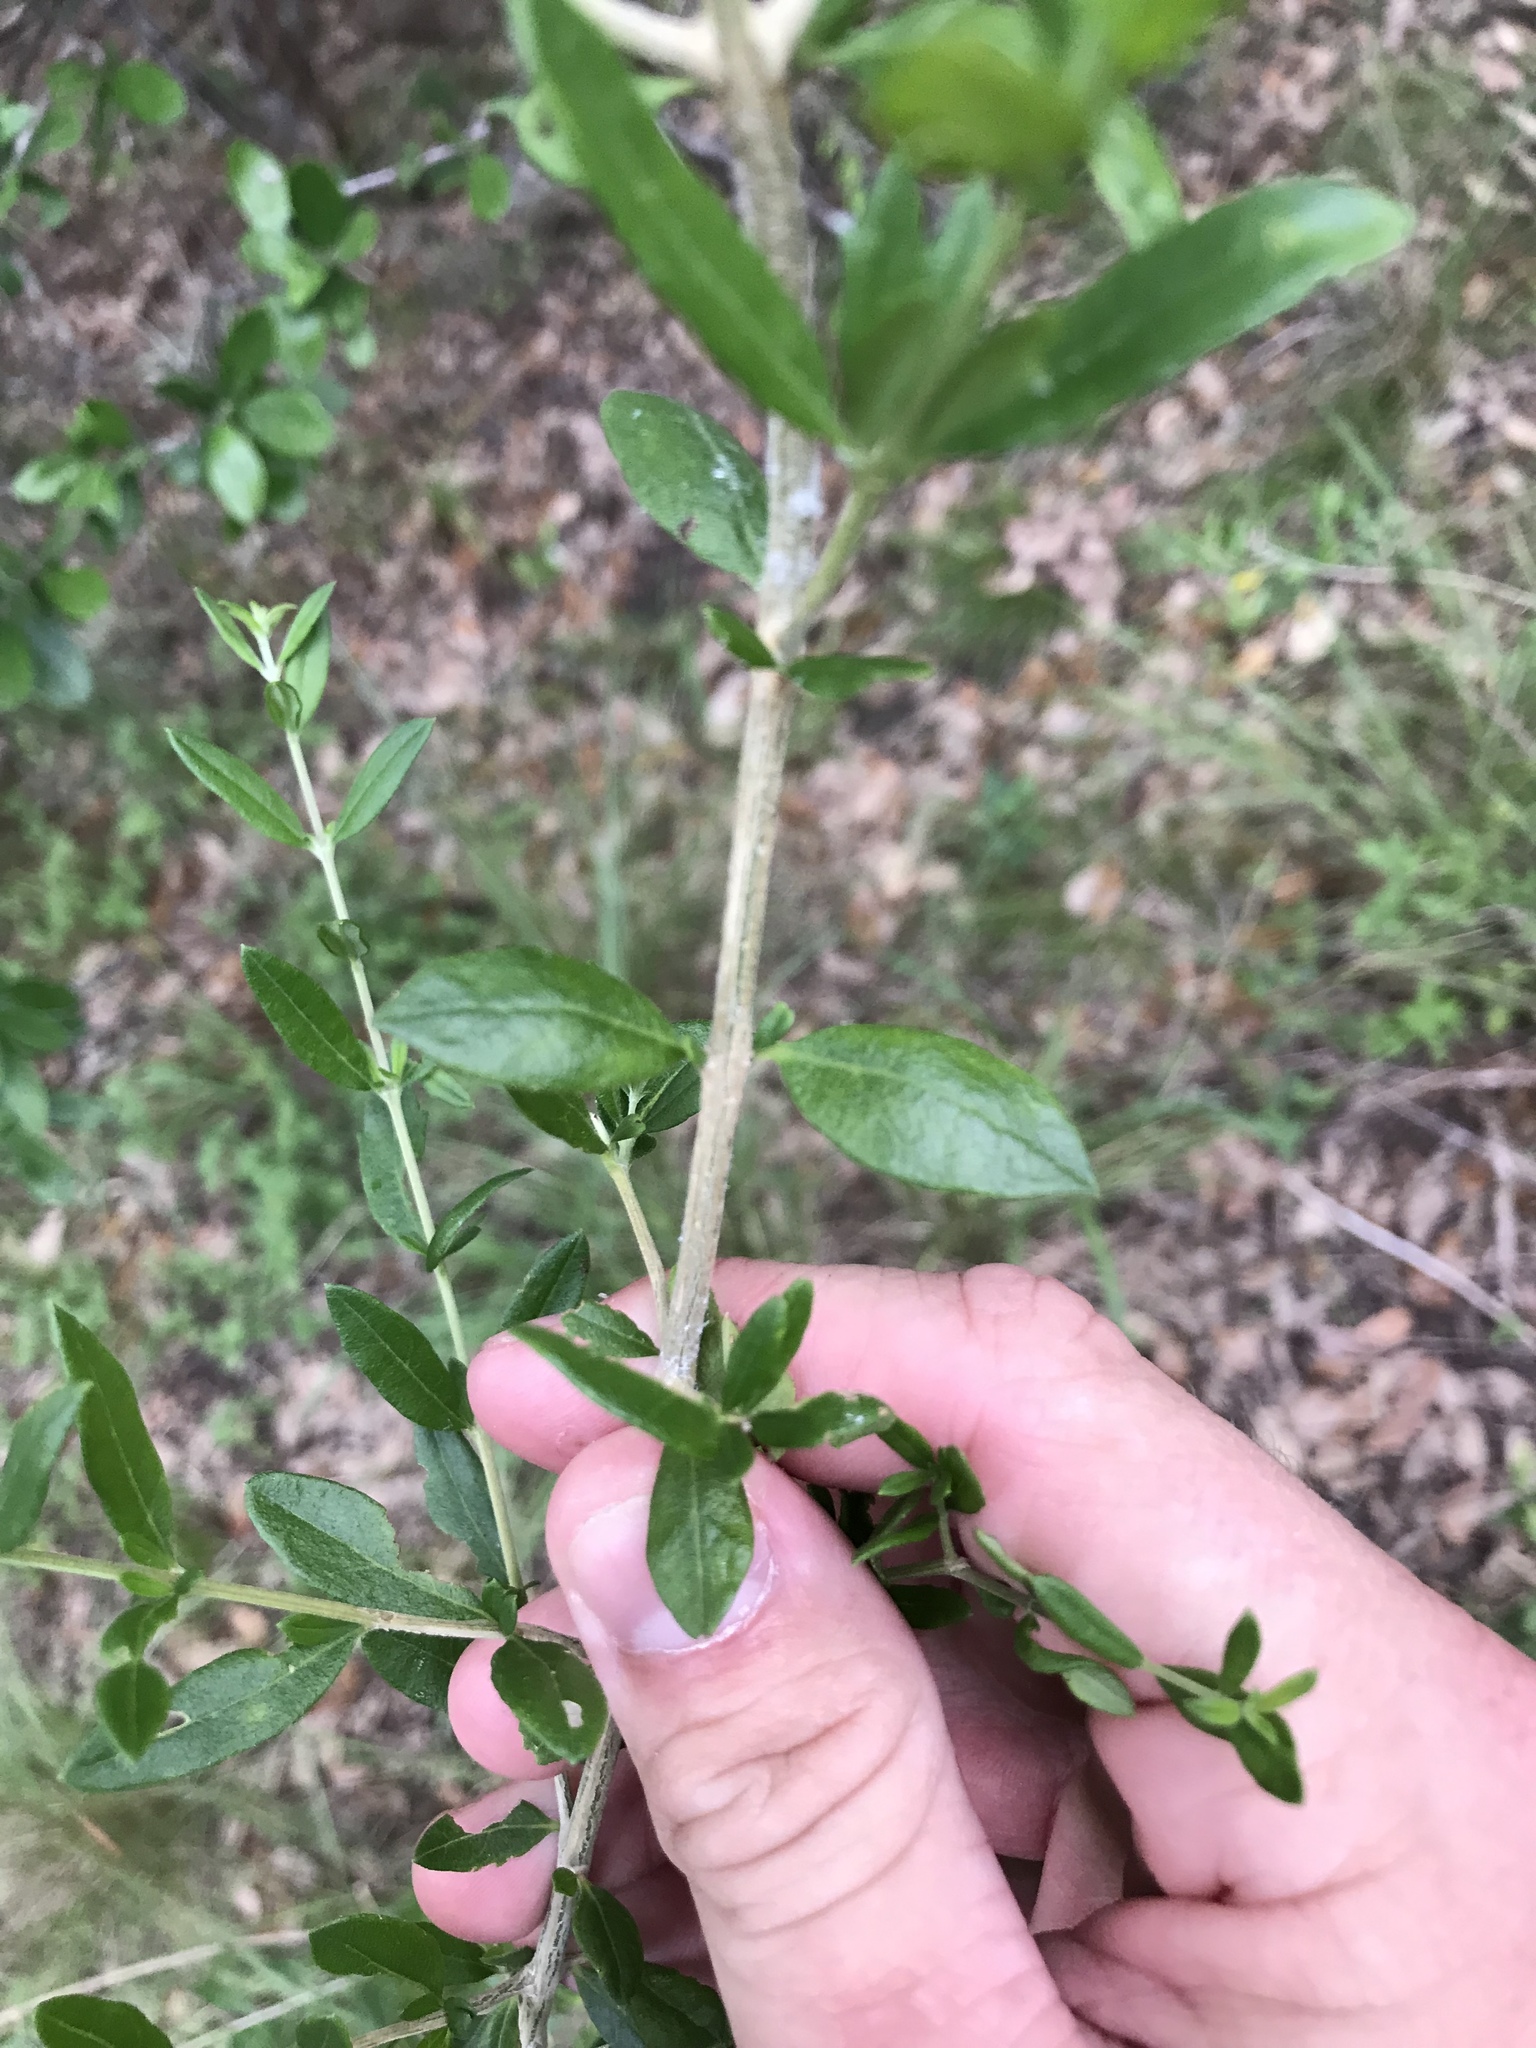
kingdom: Plantae
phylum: Tracheophyta
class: Magnoliopsida
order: Lamiales
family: Verbenaceae
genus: Aloysia
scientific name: Aloysia gratissima
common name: Common bee-brush
